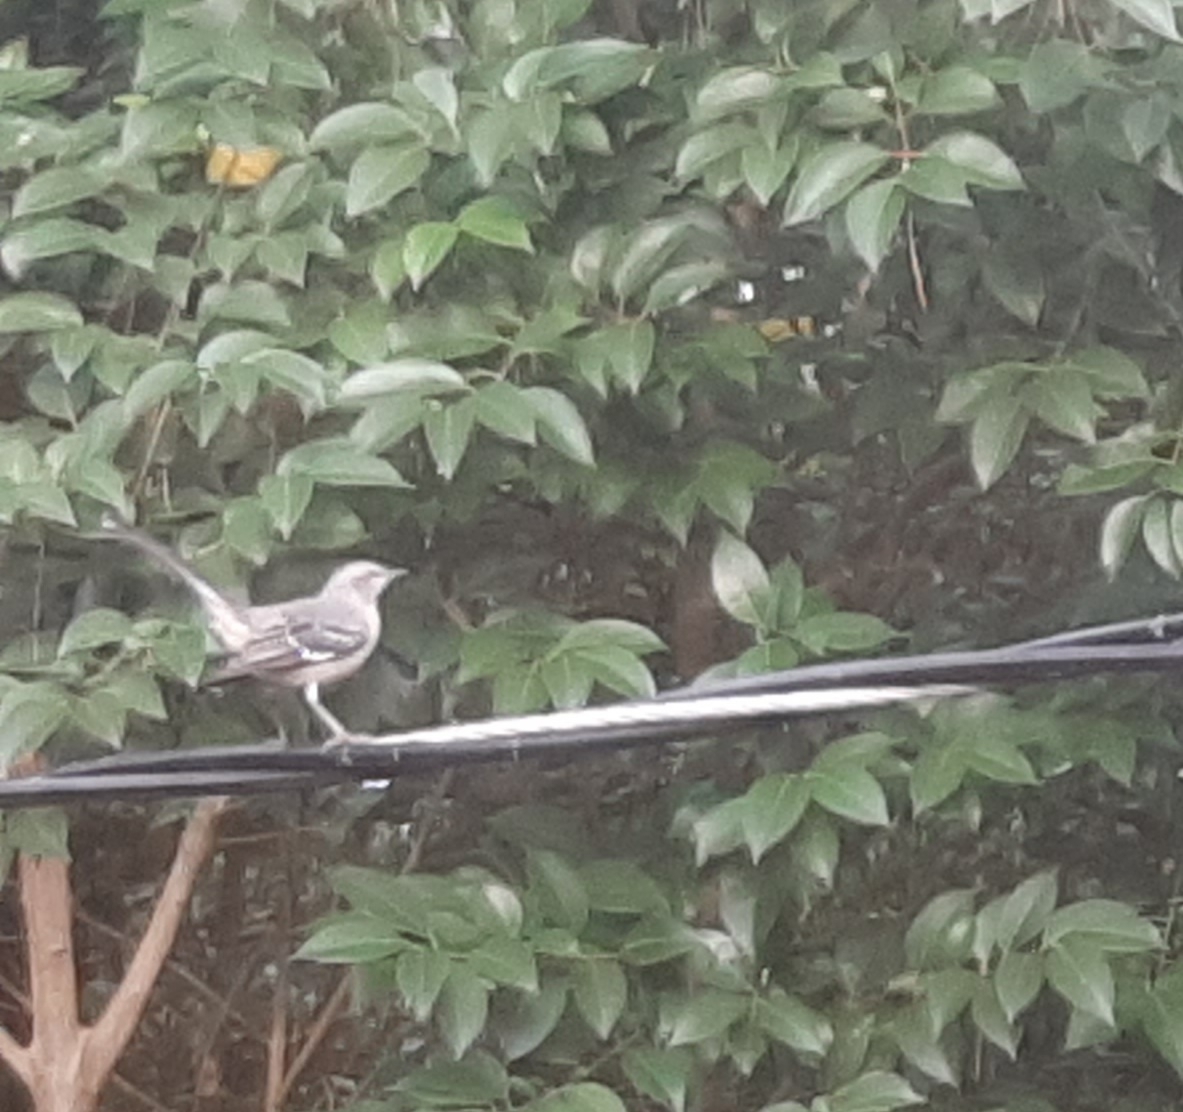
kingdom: Animalia
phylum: Chordata
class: Aves
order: Passeriformes
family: Mimidae
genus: Mimus
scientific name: Mimus polyglottos
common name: Northern mockingbird
